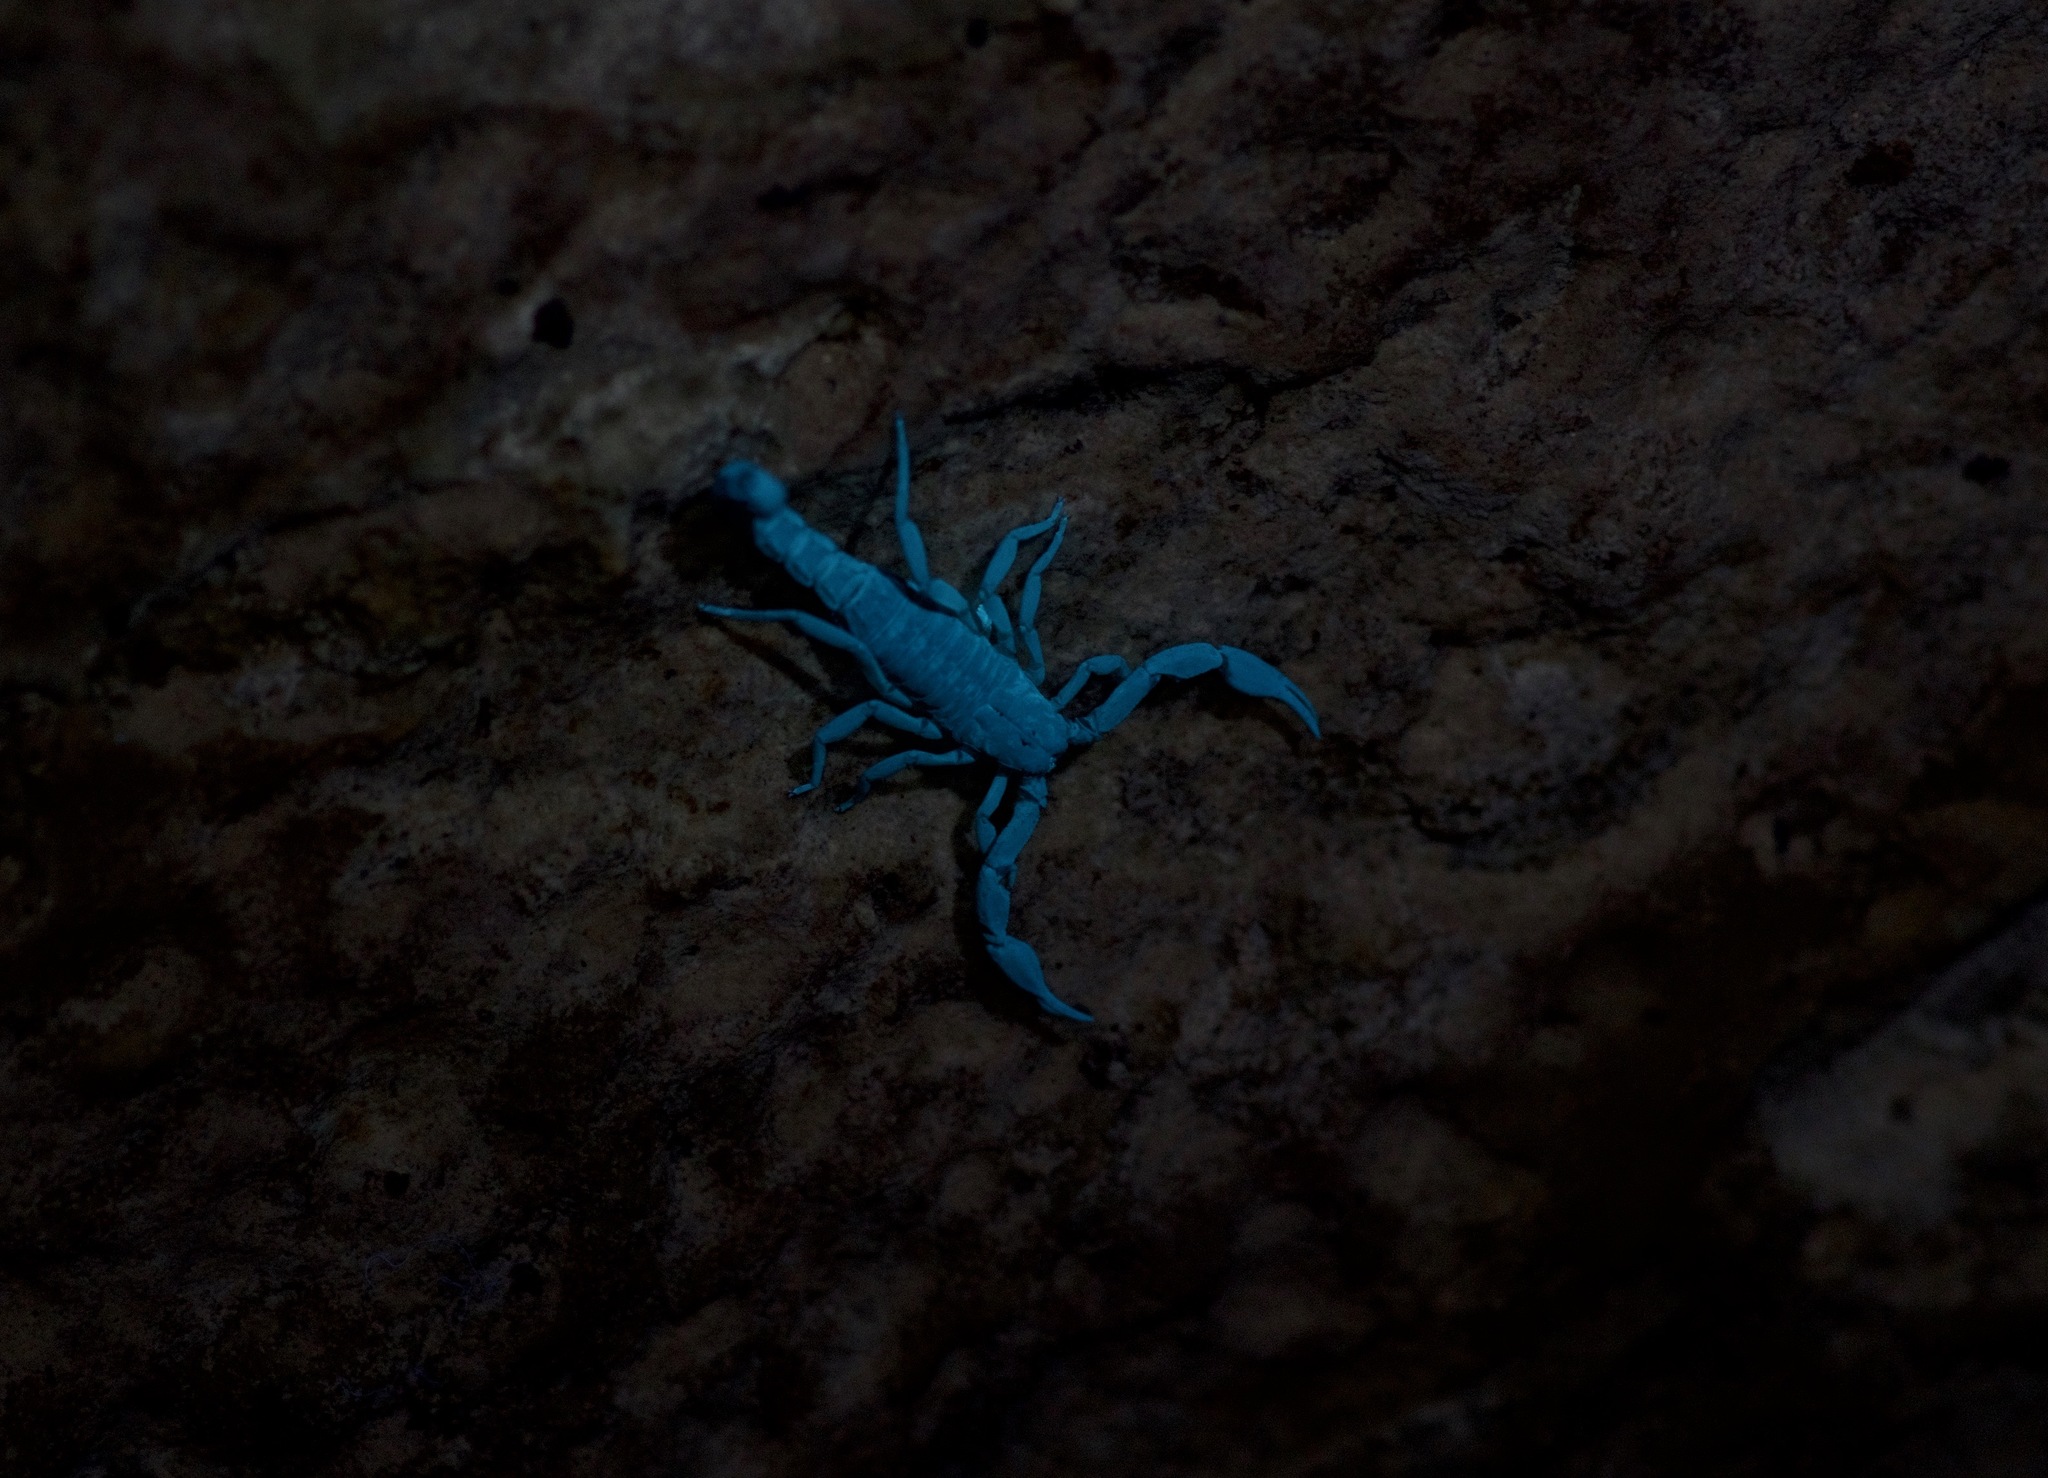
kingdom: Animalia
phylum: Arthropoda
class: Arachnida
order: Scorpiones
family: Vaejovidae
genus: Pseudouroctonus
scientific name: Pseudouroctonus reddelli
